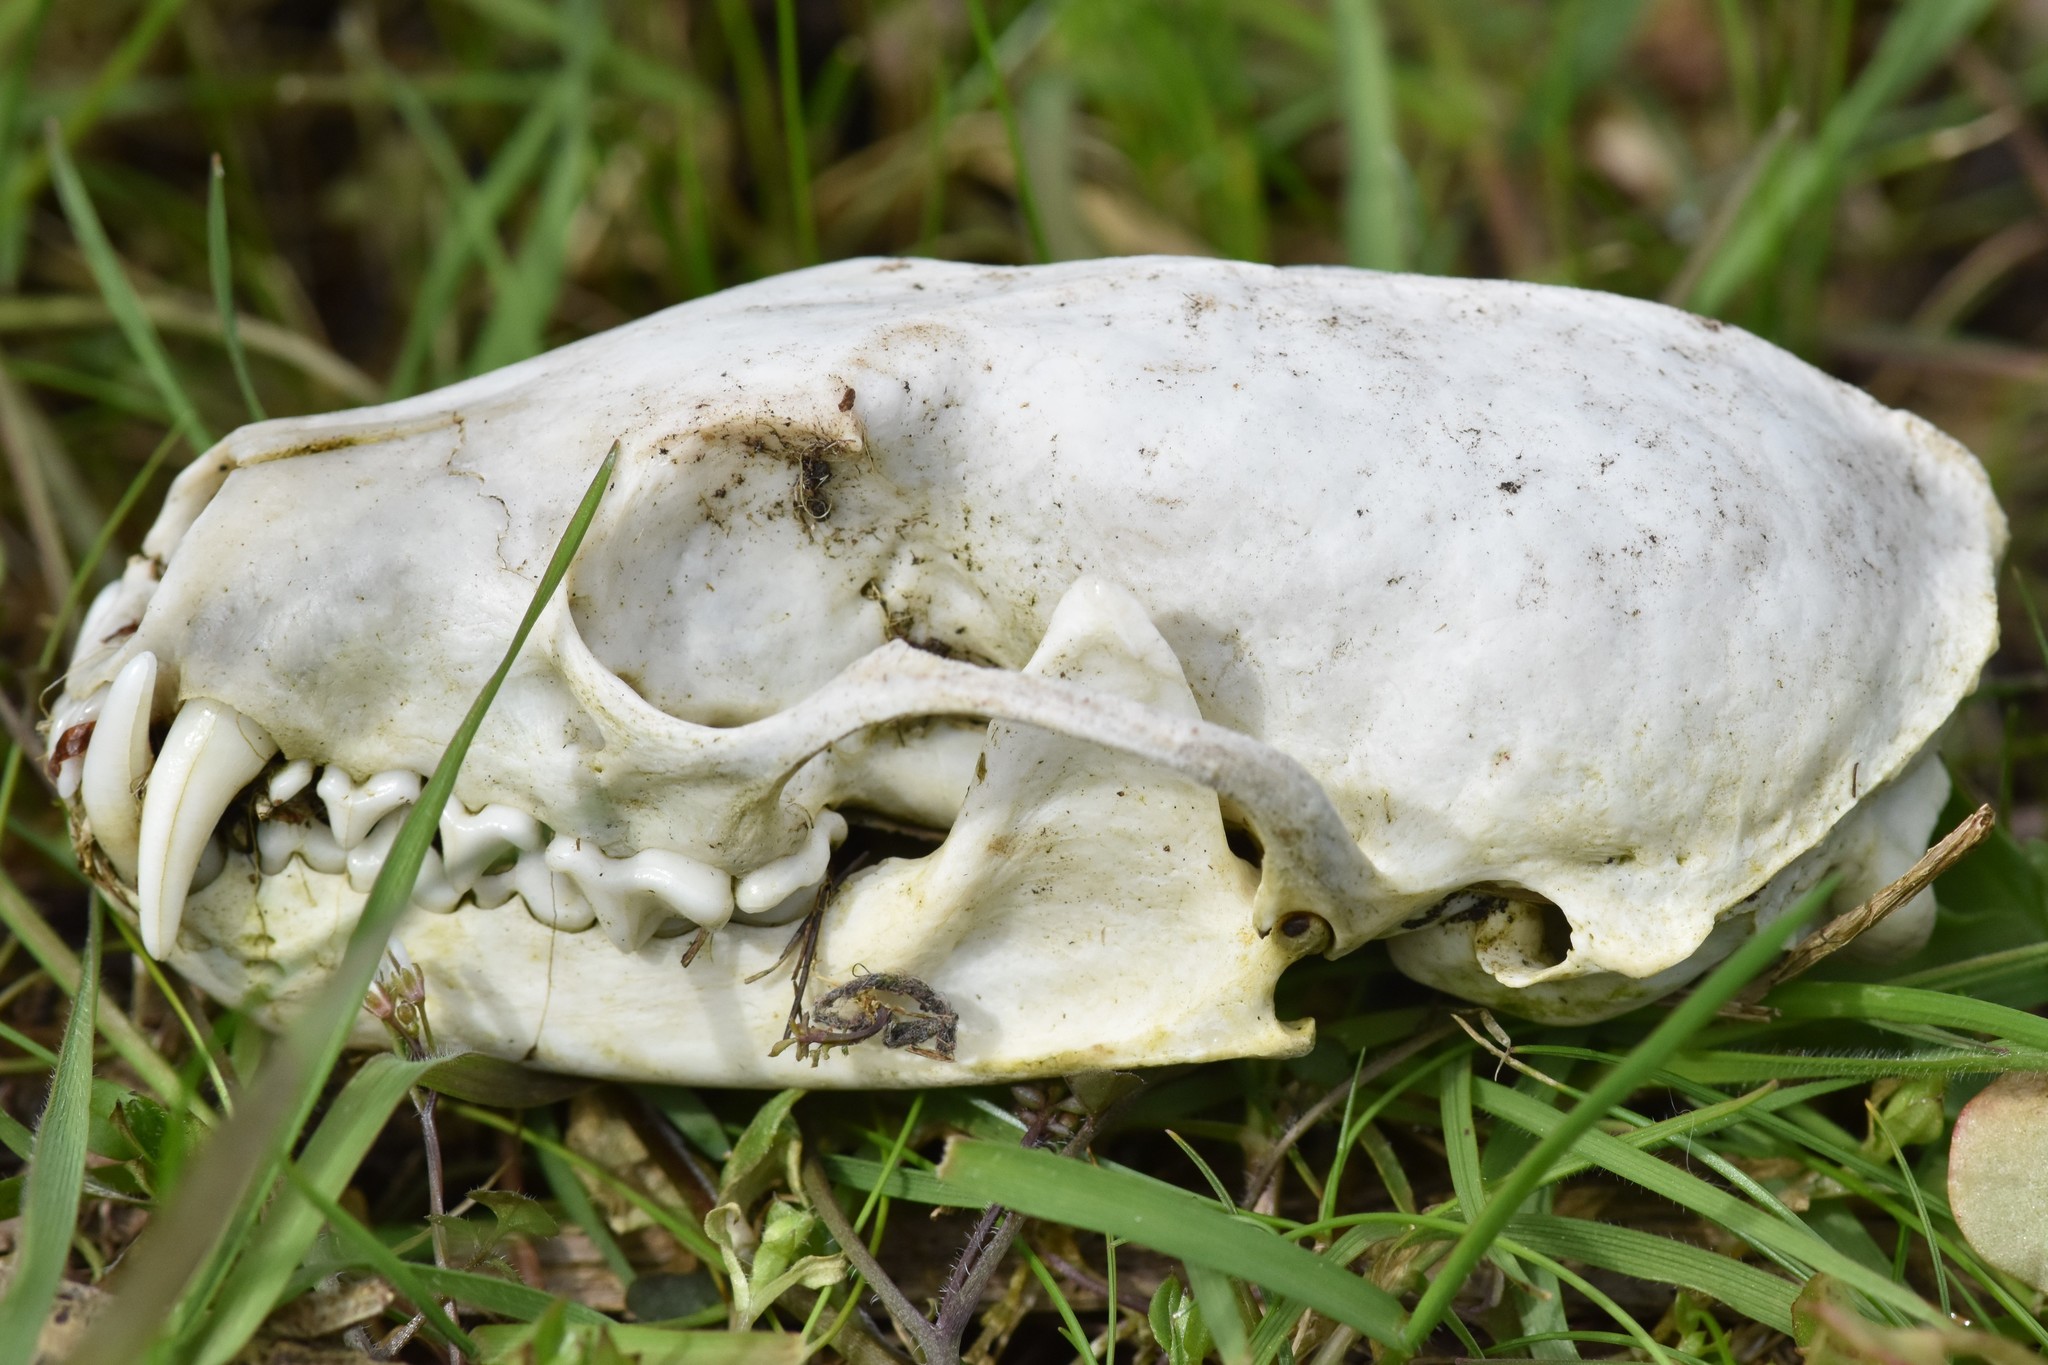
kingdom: Animalia
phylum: Chordata
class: Mammalia
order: Carnivora
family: Mustelidae
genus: Martes
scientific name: Martes caurina
